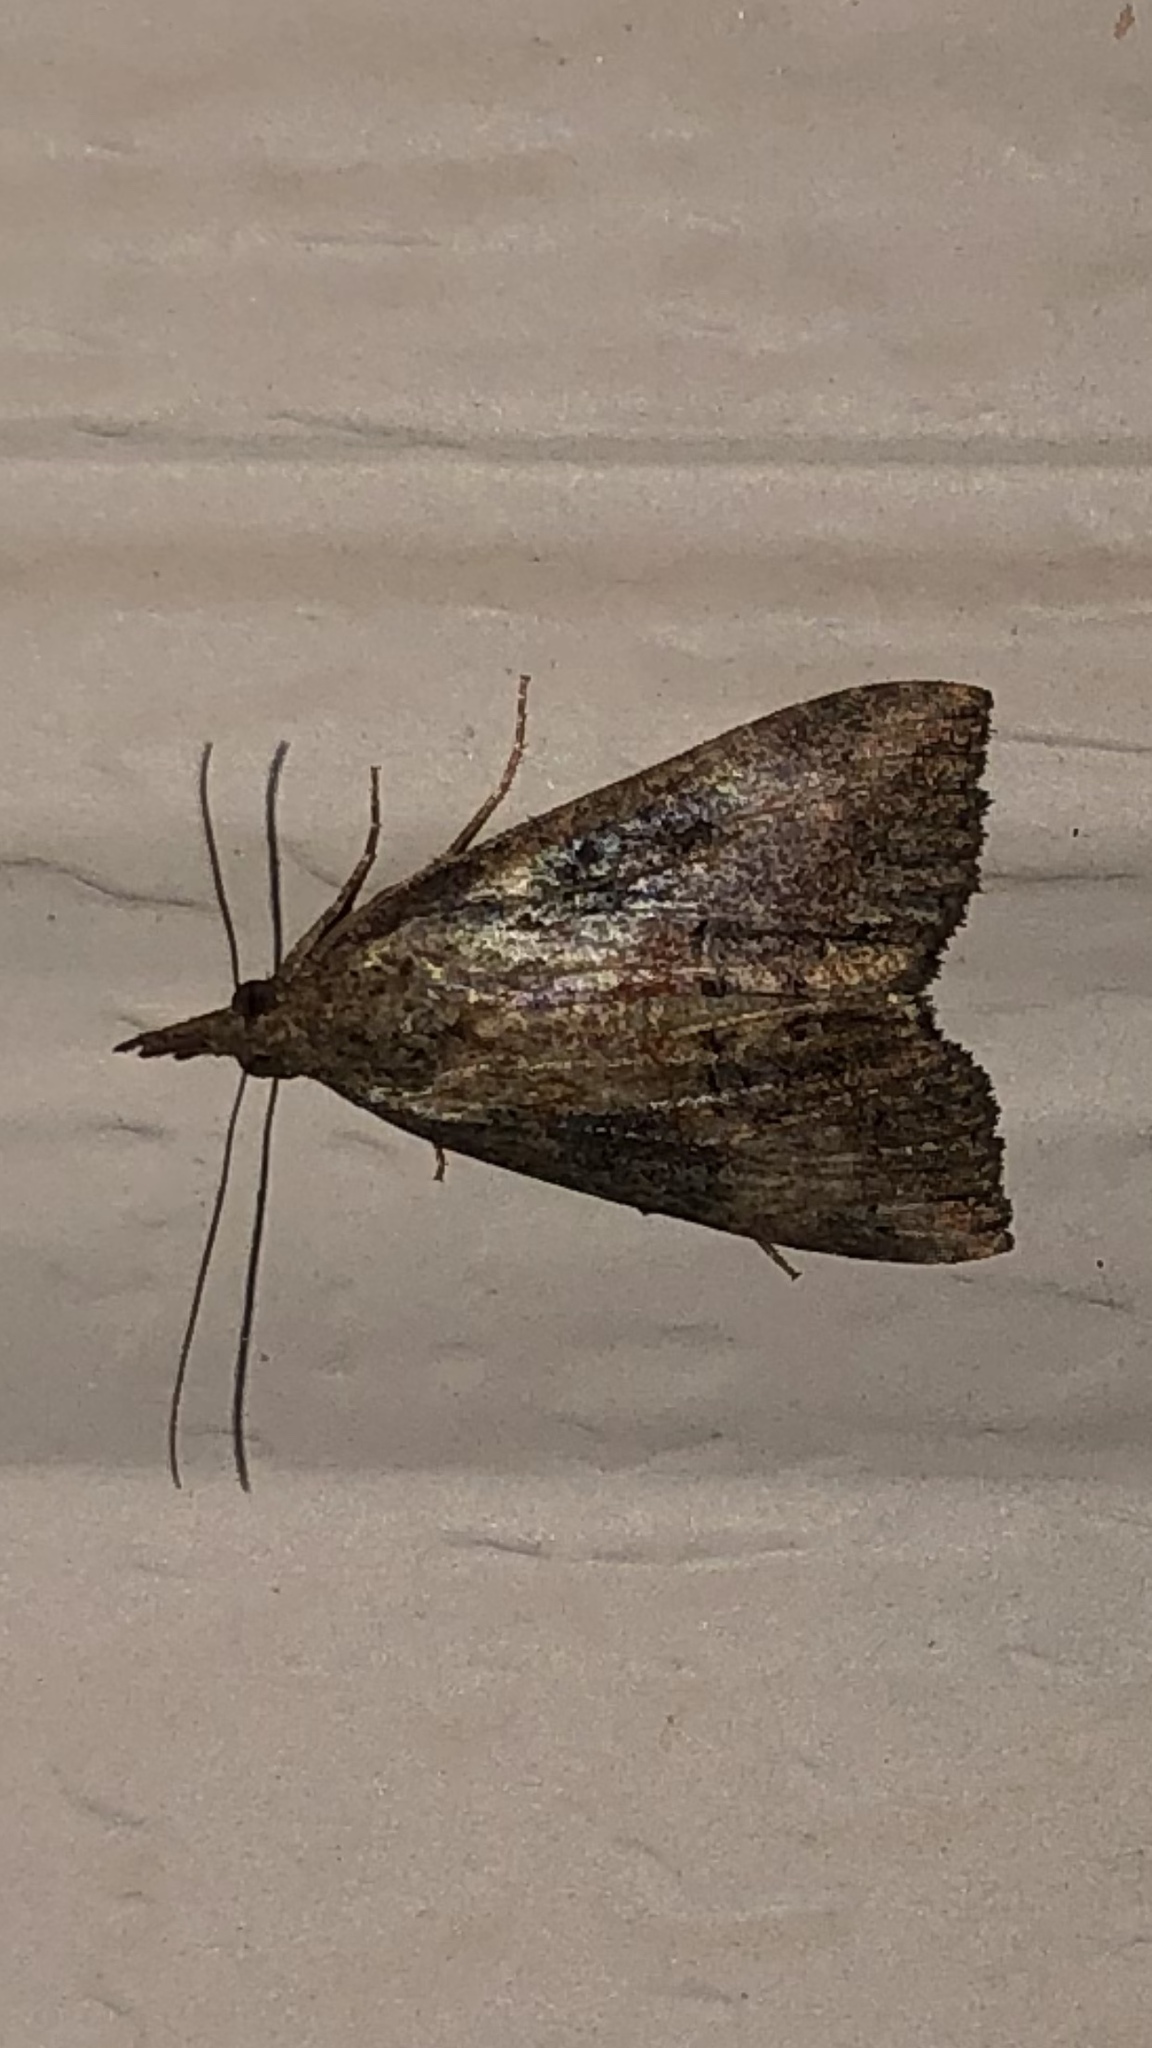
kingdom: Animalia
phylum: Arthropoda
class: Insecta
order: Lepidoptera
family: Erebidae
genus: Hypena
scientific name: Hypena scabra
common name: Green cloverworm
